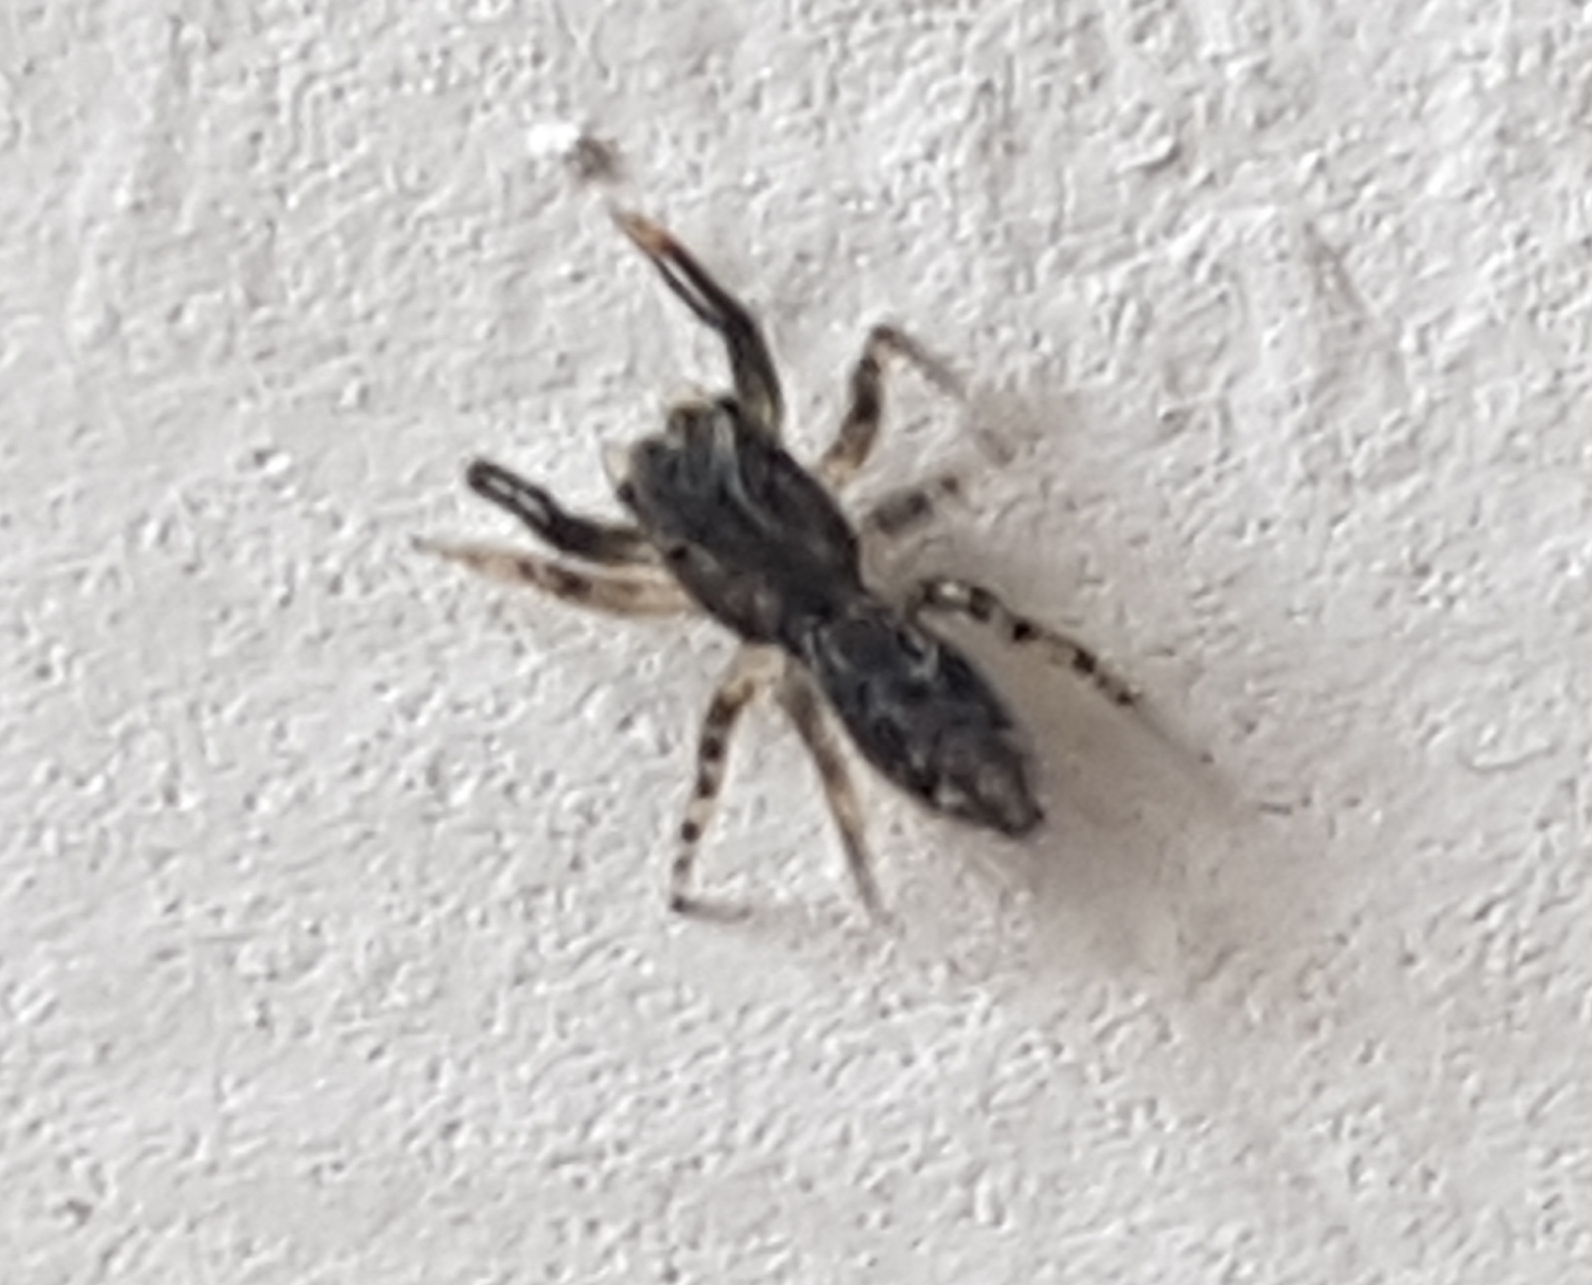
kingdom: Animalia
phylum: Arthropoda
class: Arachnida
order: Araneae
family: Salticidae
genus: Marpissa
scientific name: Marpissa muscosa
